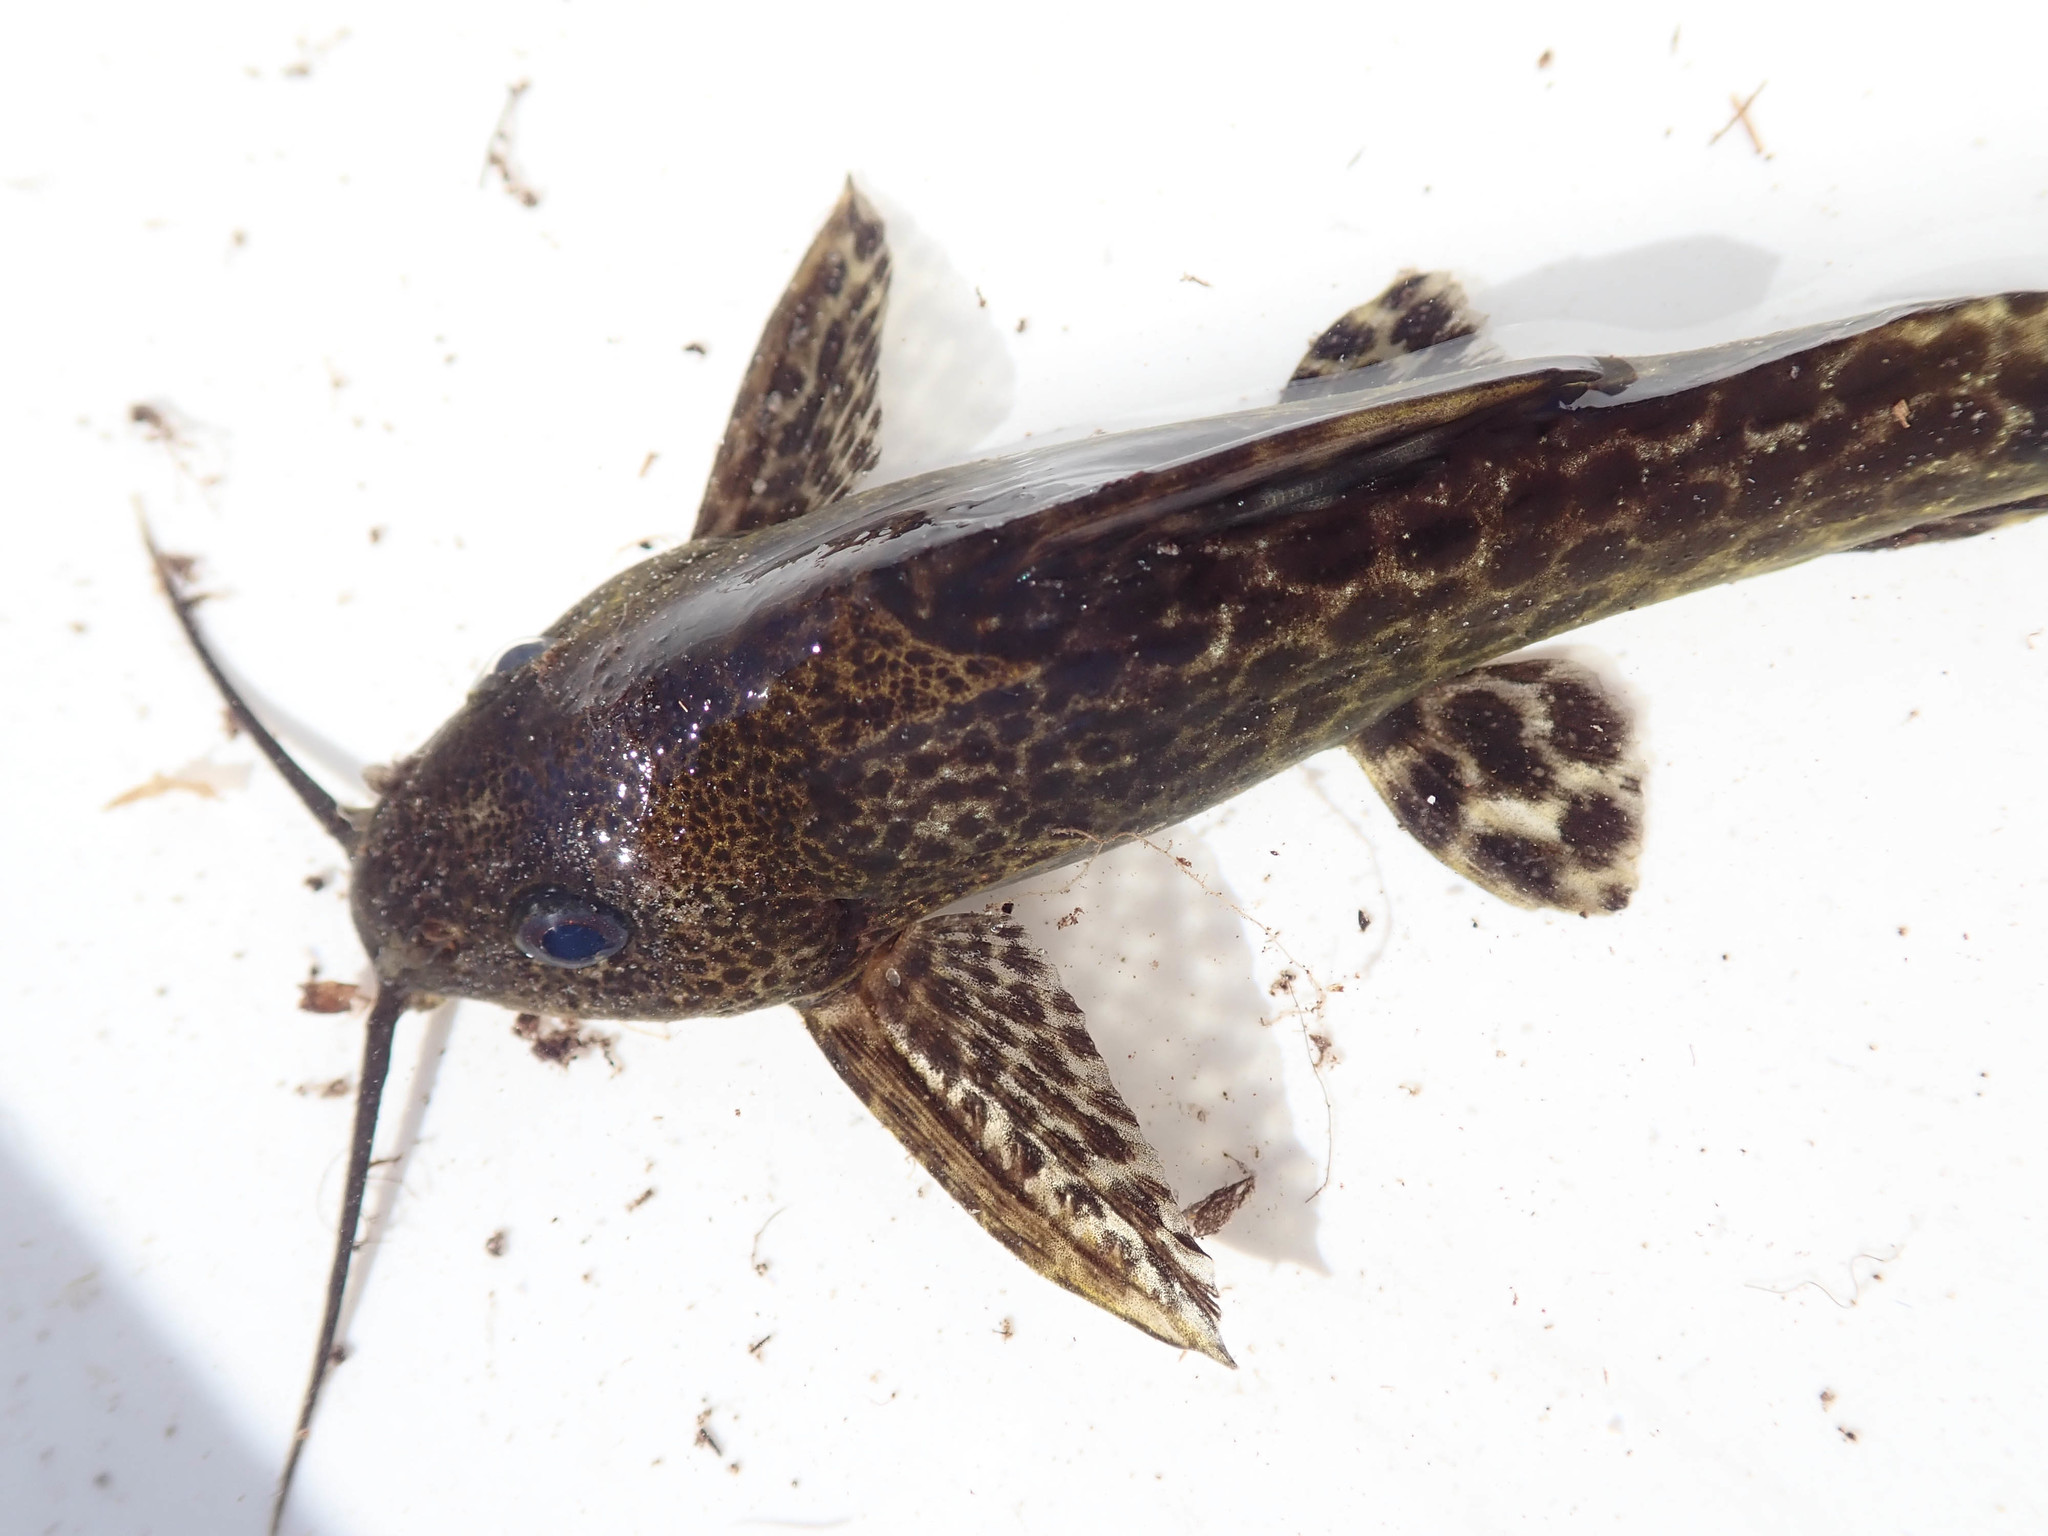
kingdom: Animalia
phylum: Chordata
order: Siluriformes
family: Mochokidae
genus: Synodontis
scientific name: Synodontis macrostoma
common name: Largemouth squeaker
